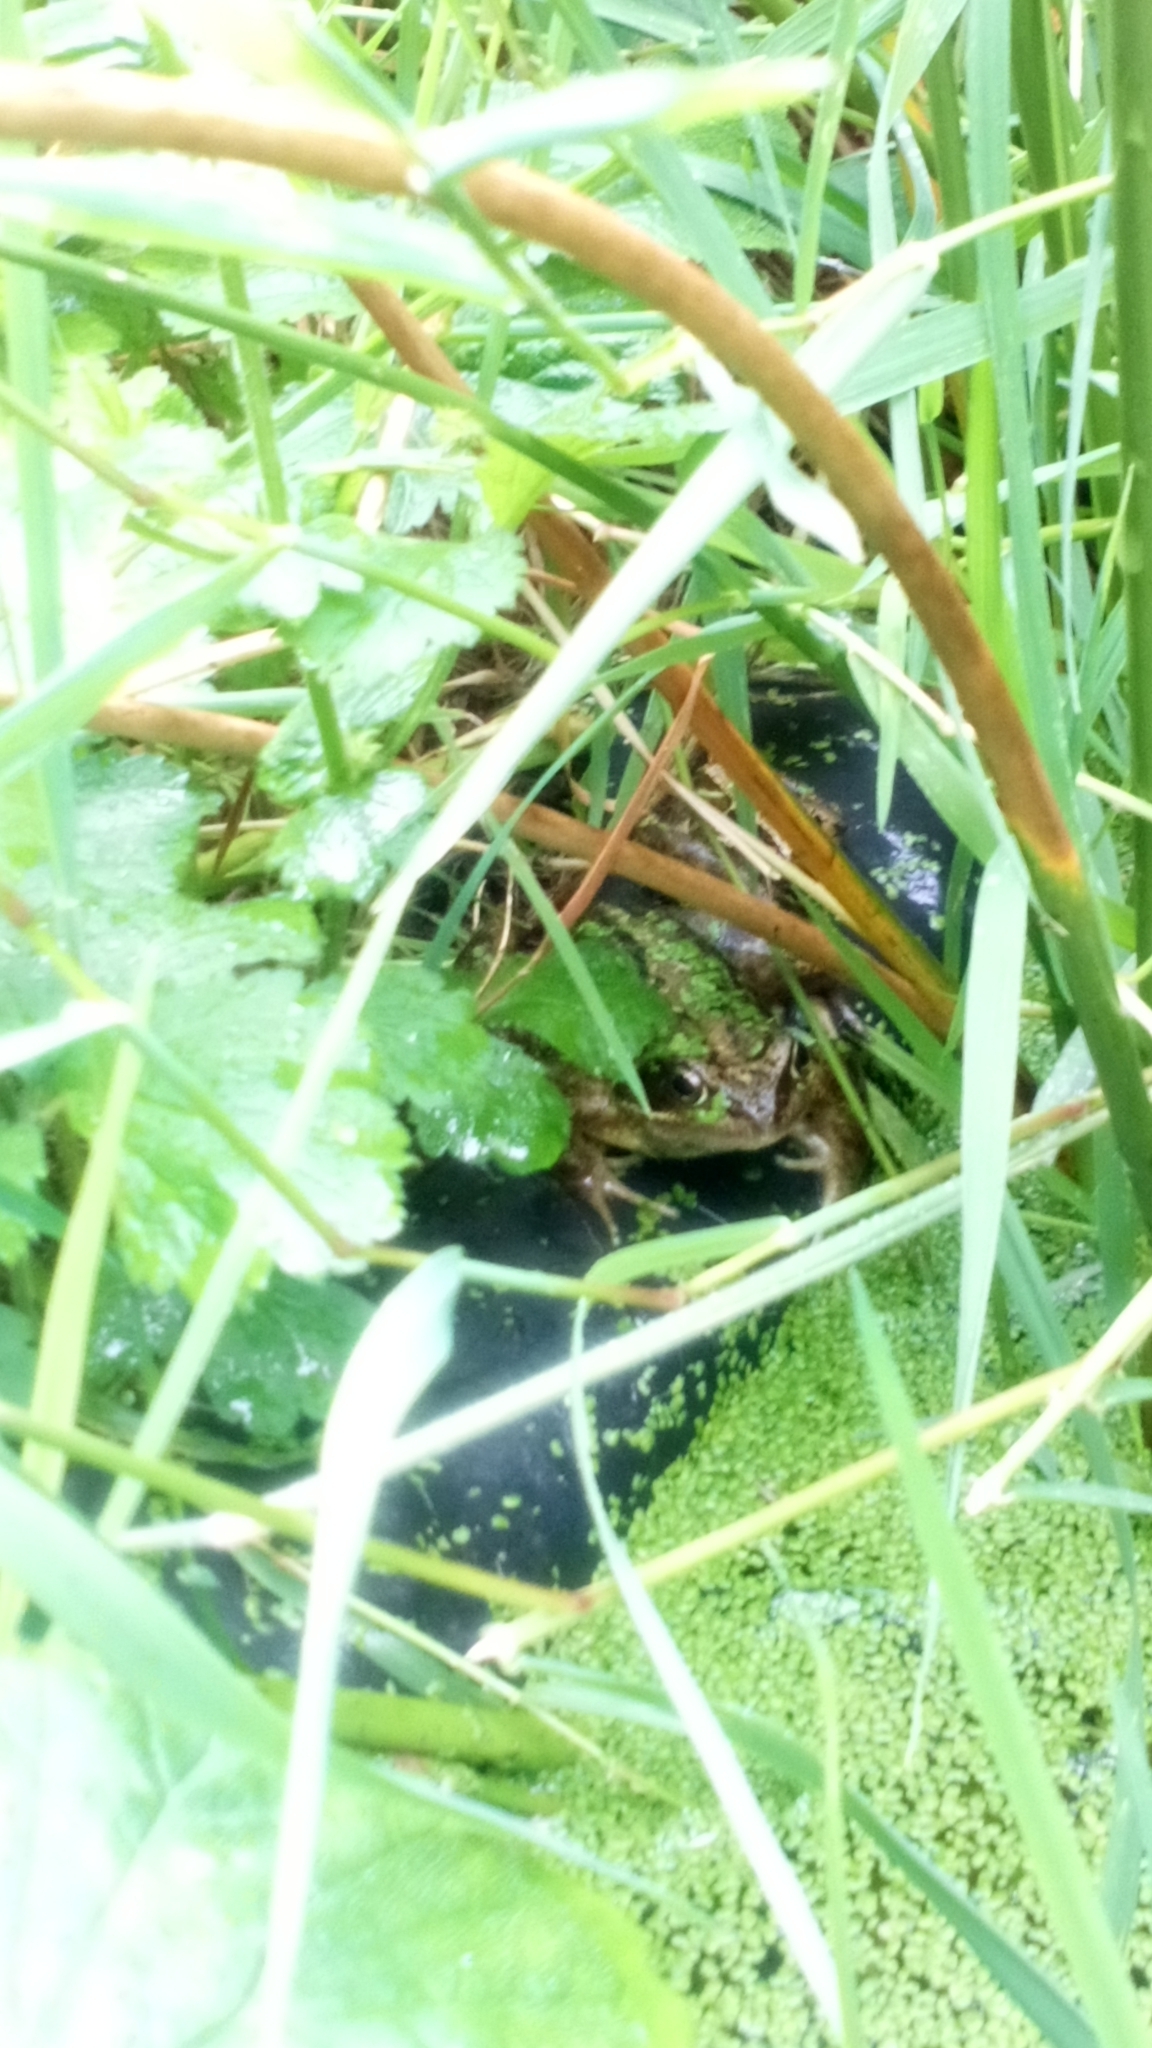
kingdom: Animalia
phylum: Chordata
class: Amphibia
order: Anura
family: Ranidae
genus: Rana
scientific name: Rana temporaria
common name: Common frog
